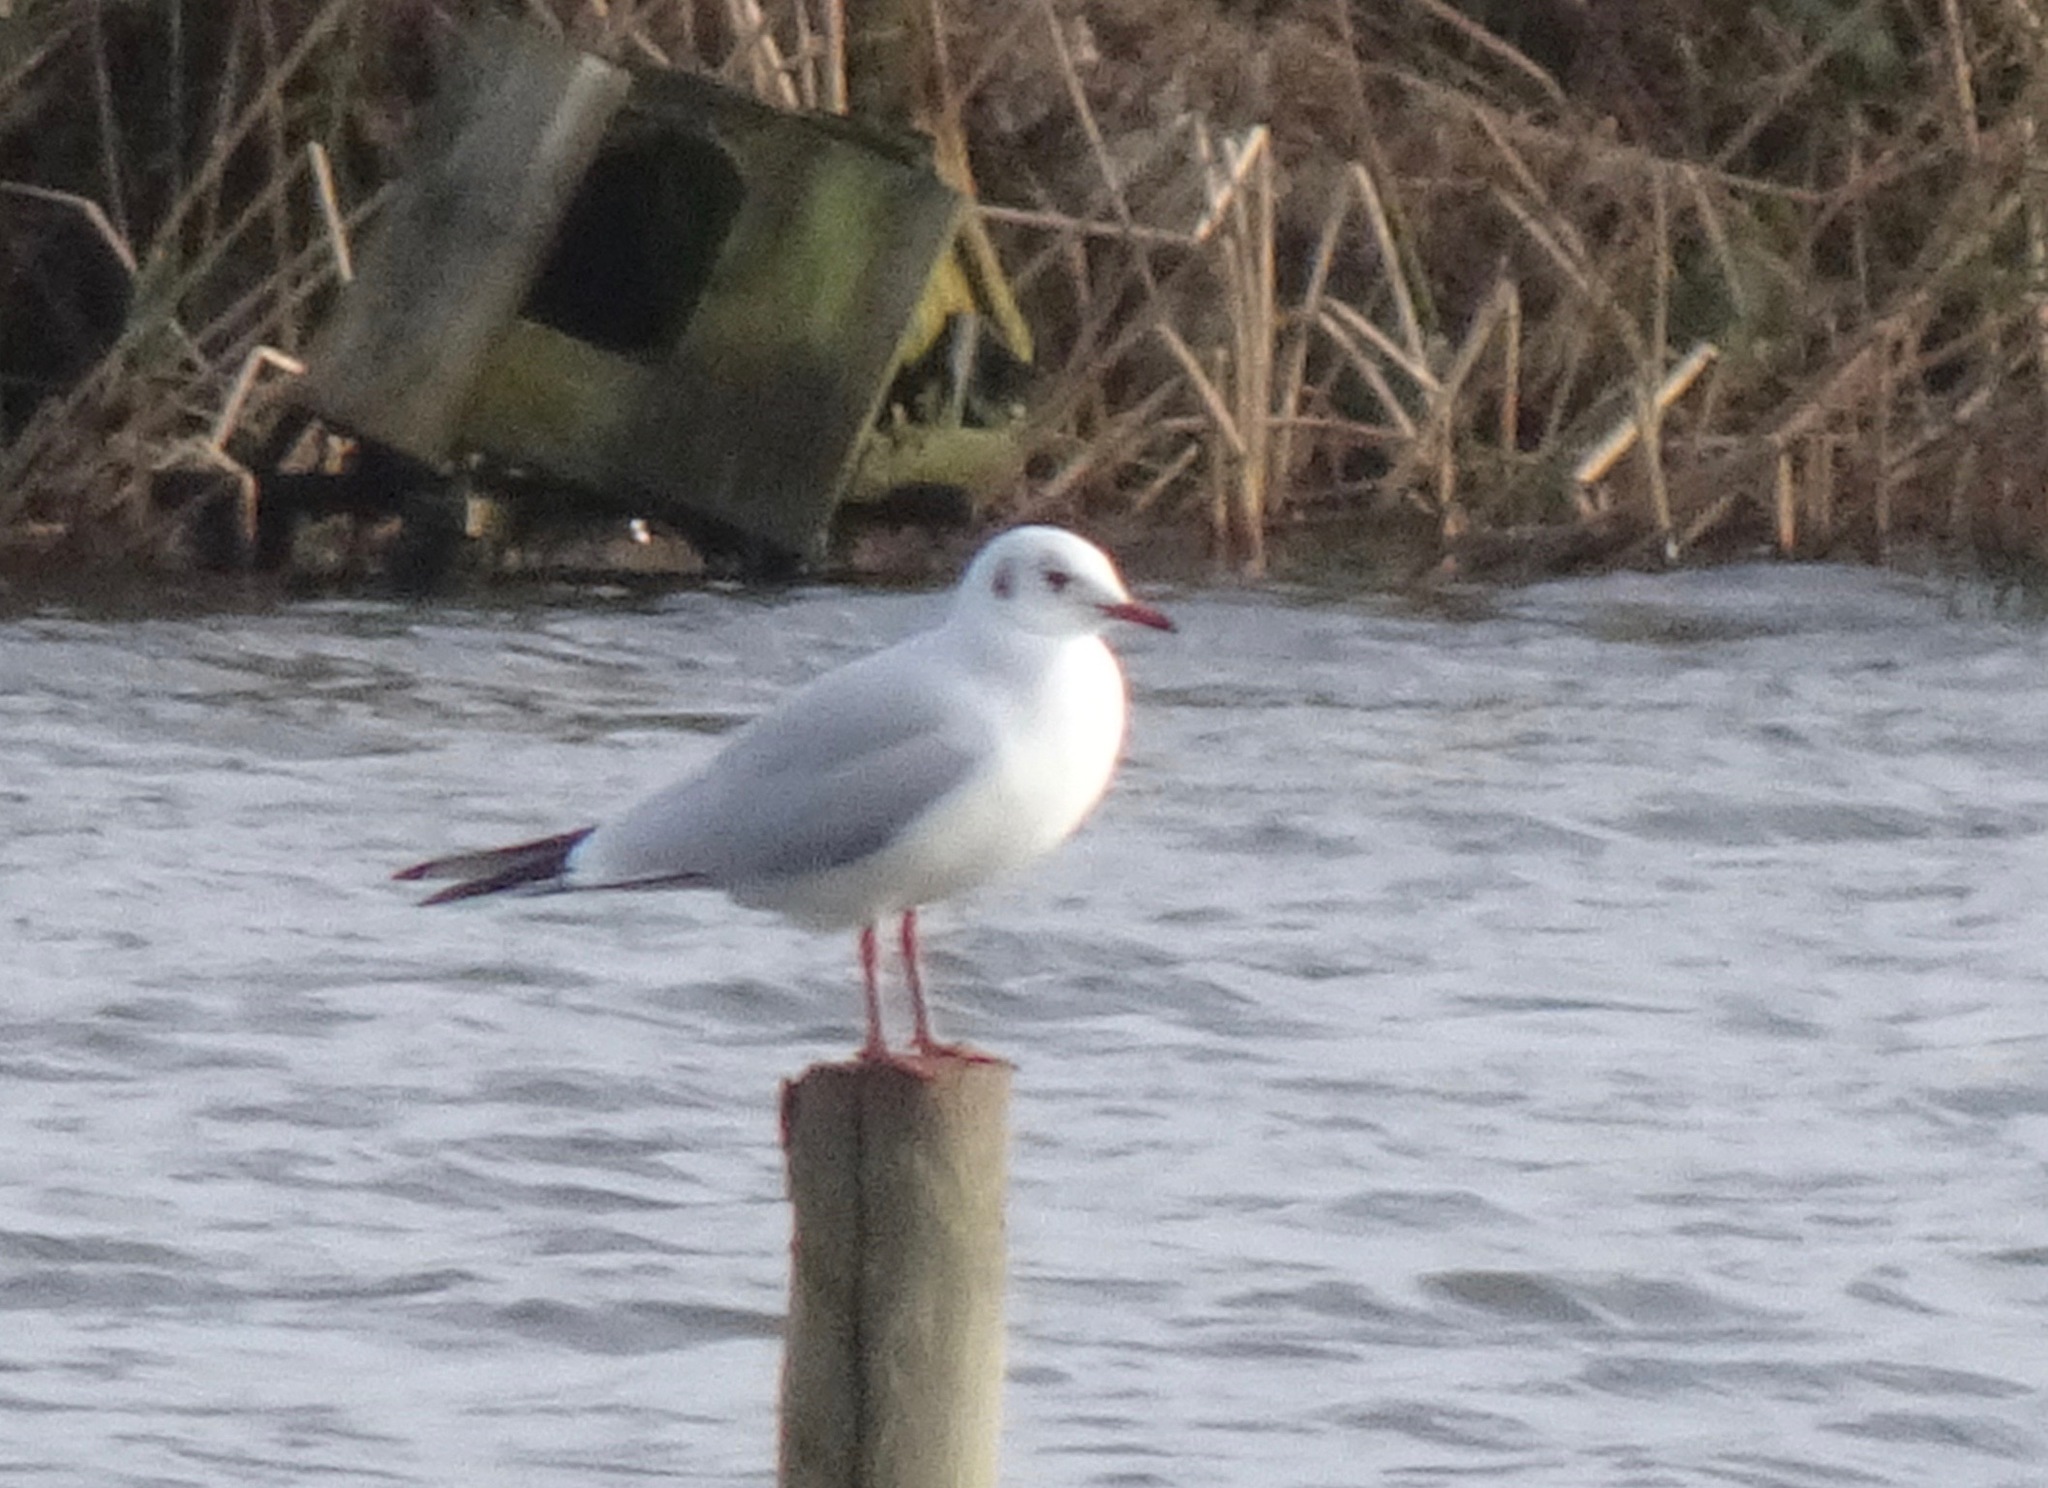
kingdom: Animalia
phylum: Chordata
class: Aves
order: Charadriiformes
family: Laridae
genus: Chroicocephalus
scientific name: Chroicocephalus ridibundus
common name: Black-headed gull
